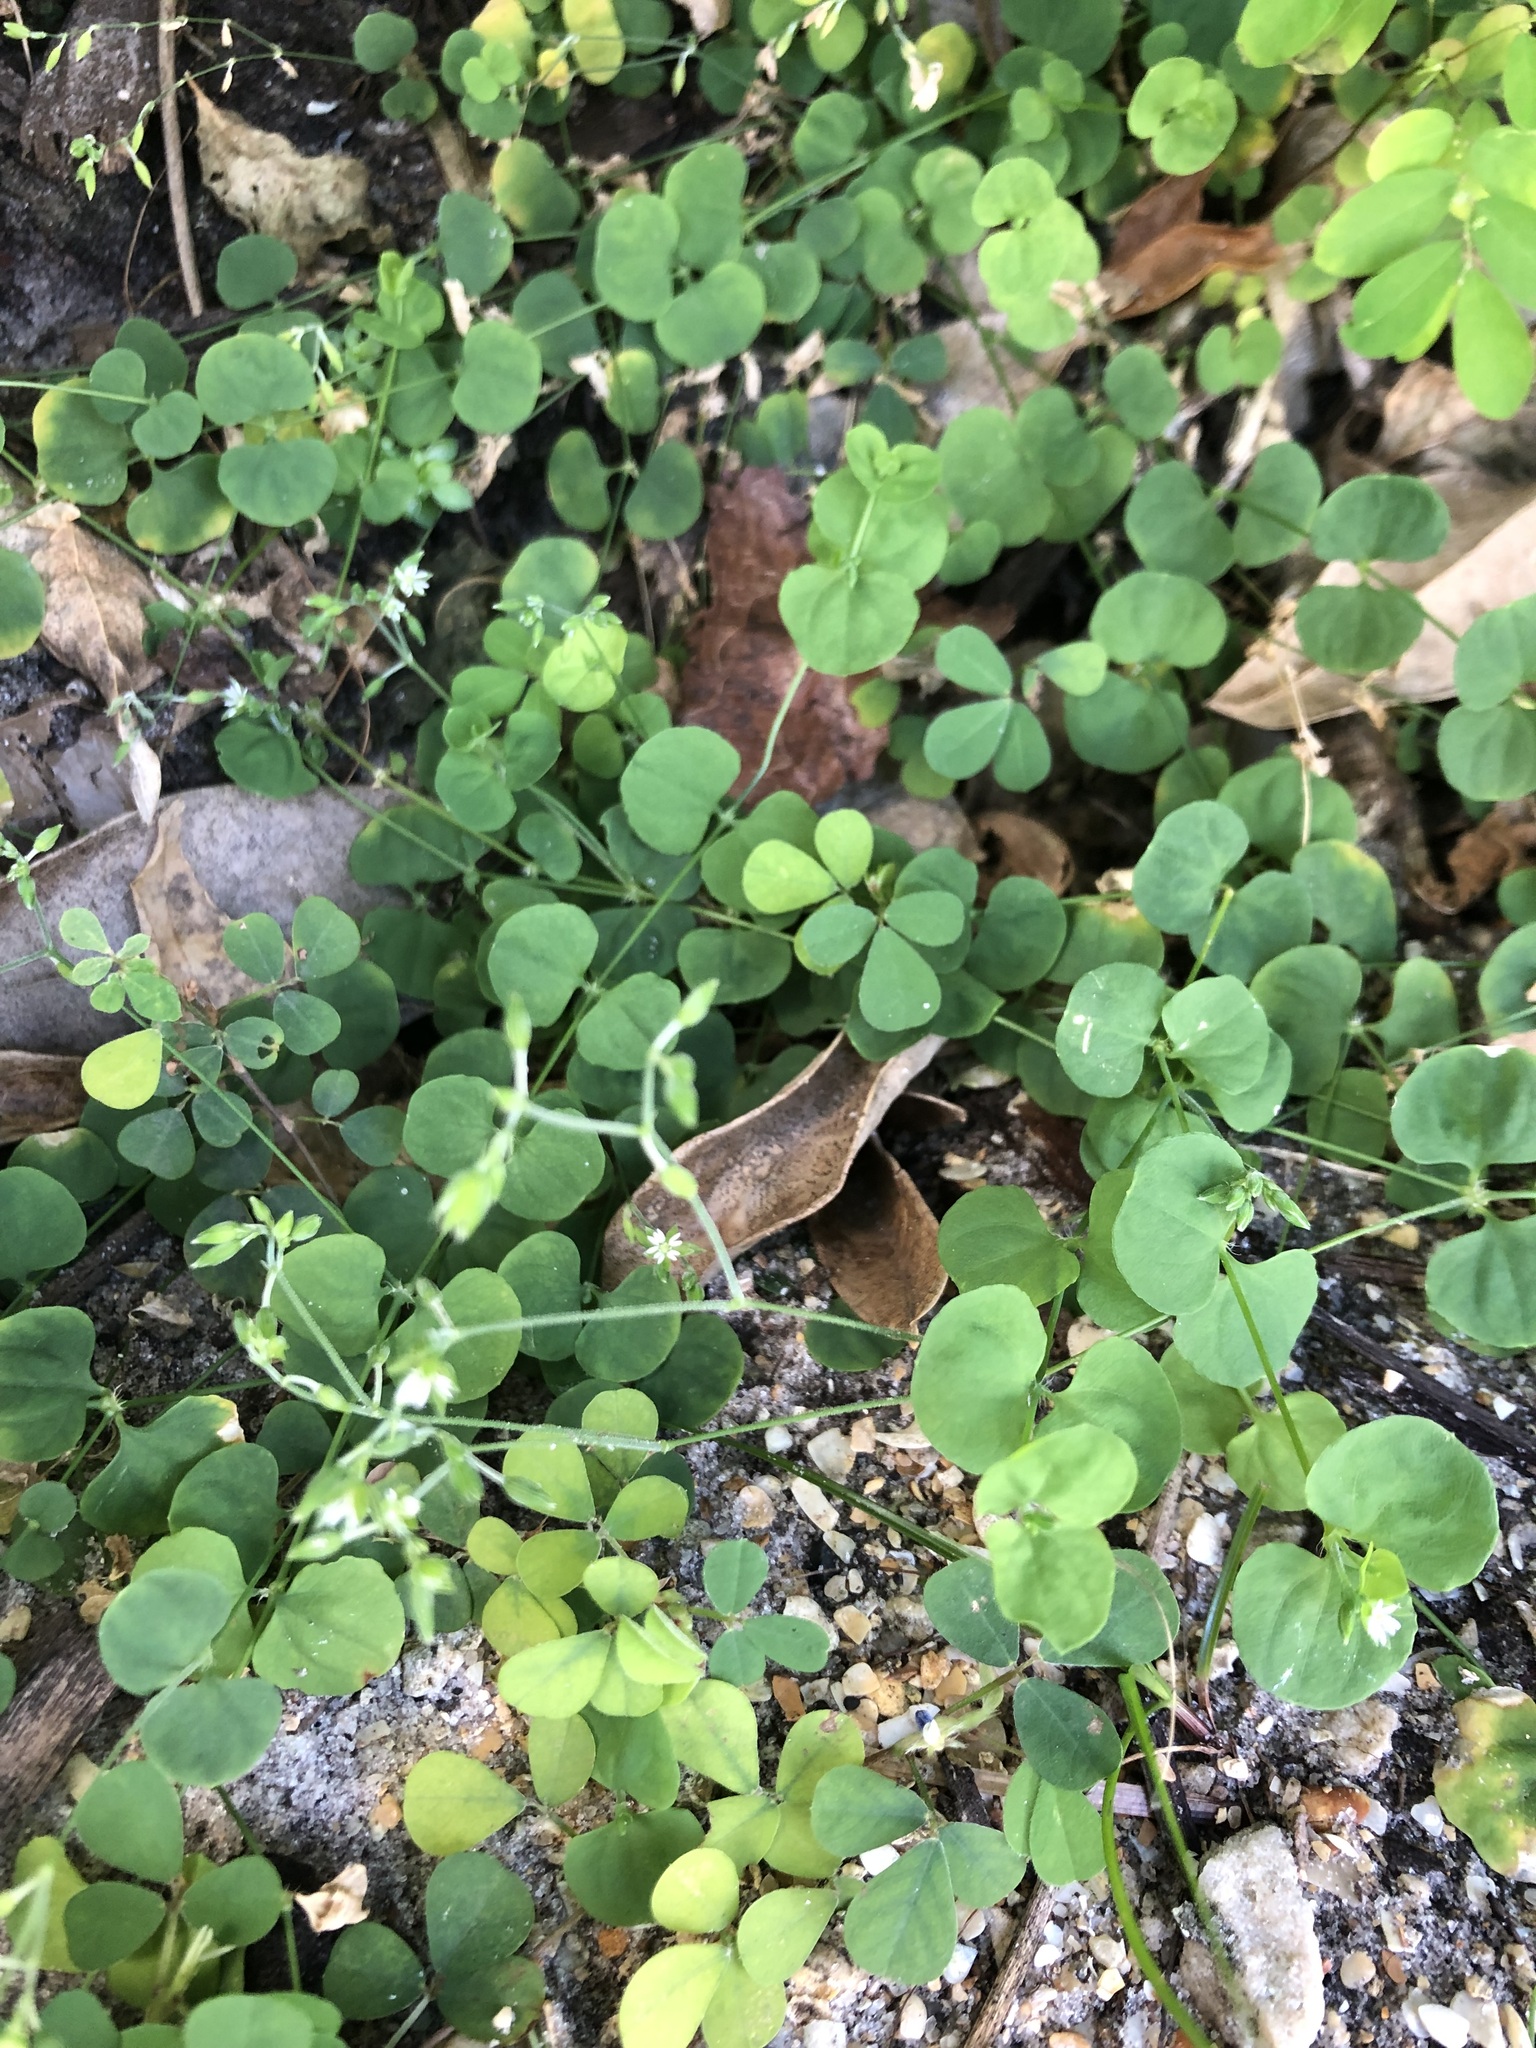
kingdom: Plantae
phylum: Tracheophyta
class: Magnoliopsida
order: Caryophyllales
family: Caryophyllaceae
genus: Drymaria
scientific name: Drymaria cordata
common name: Whitesnow
